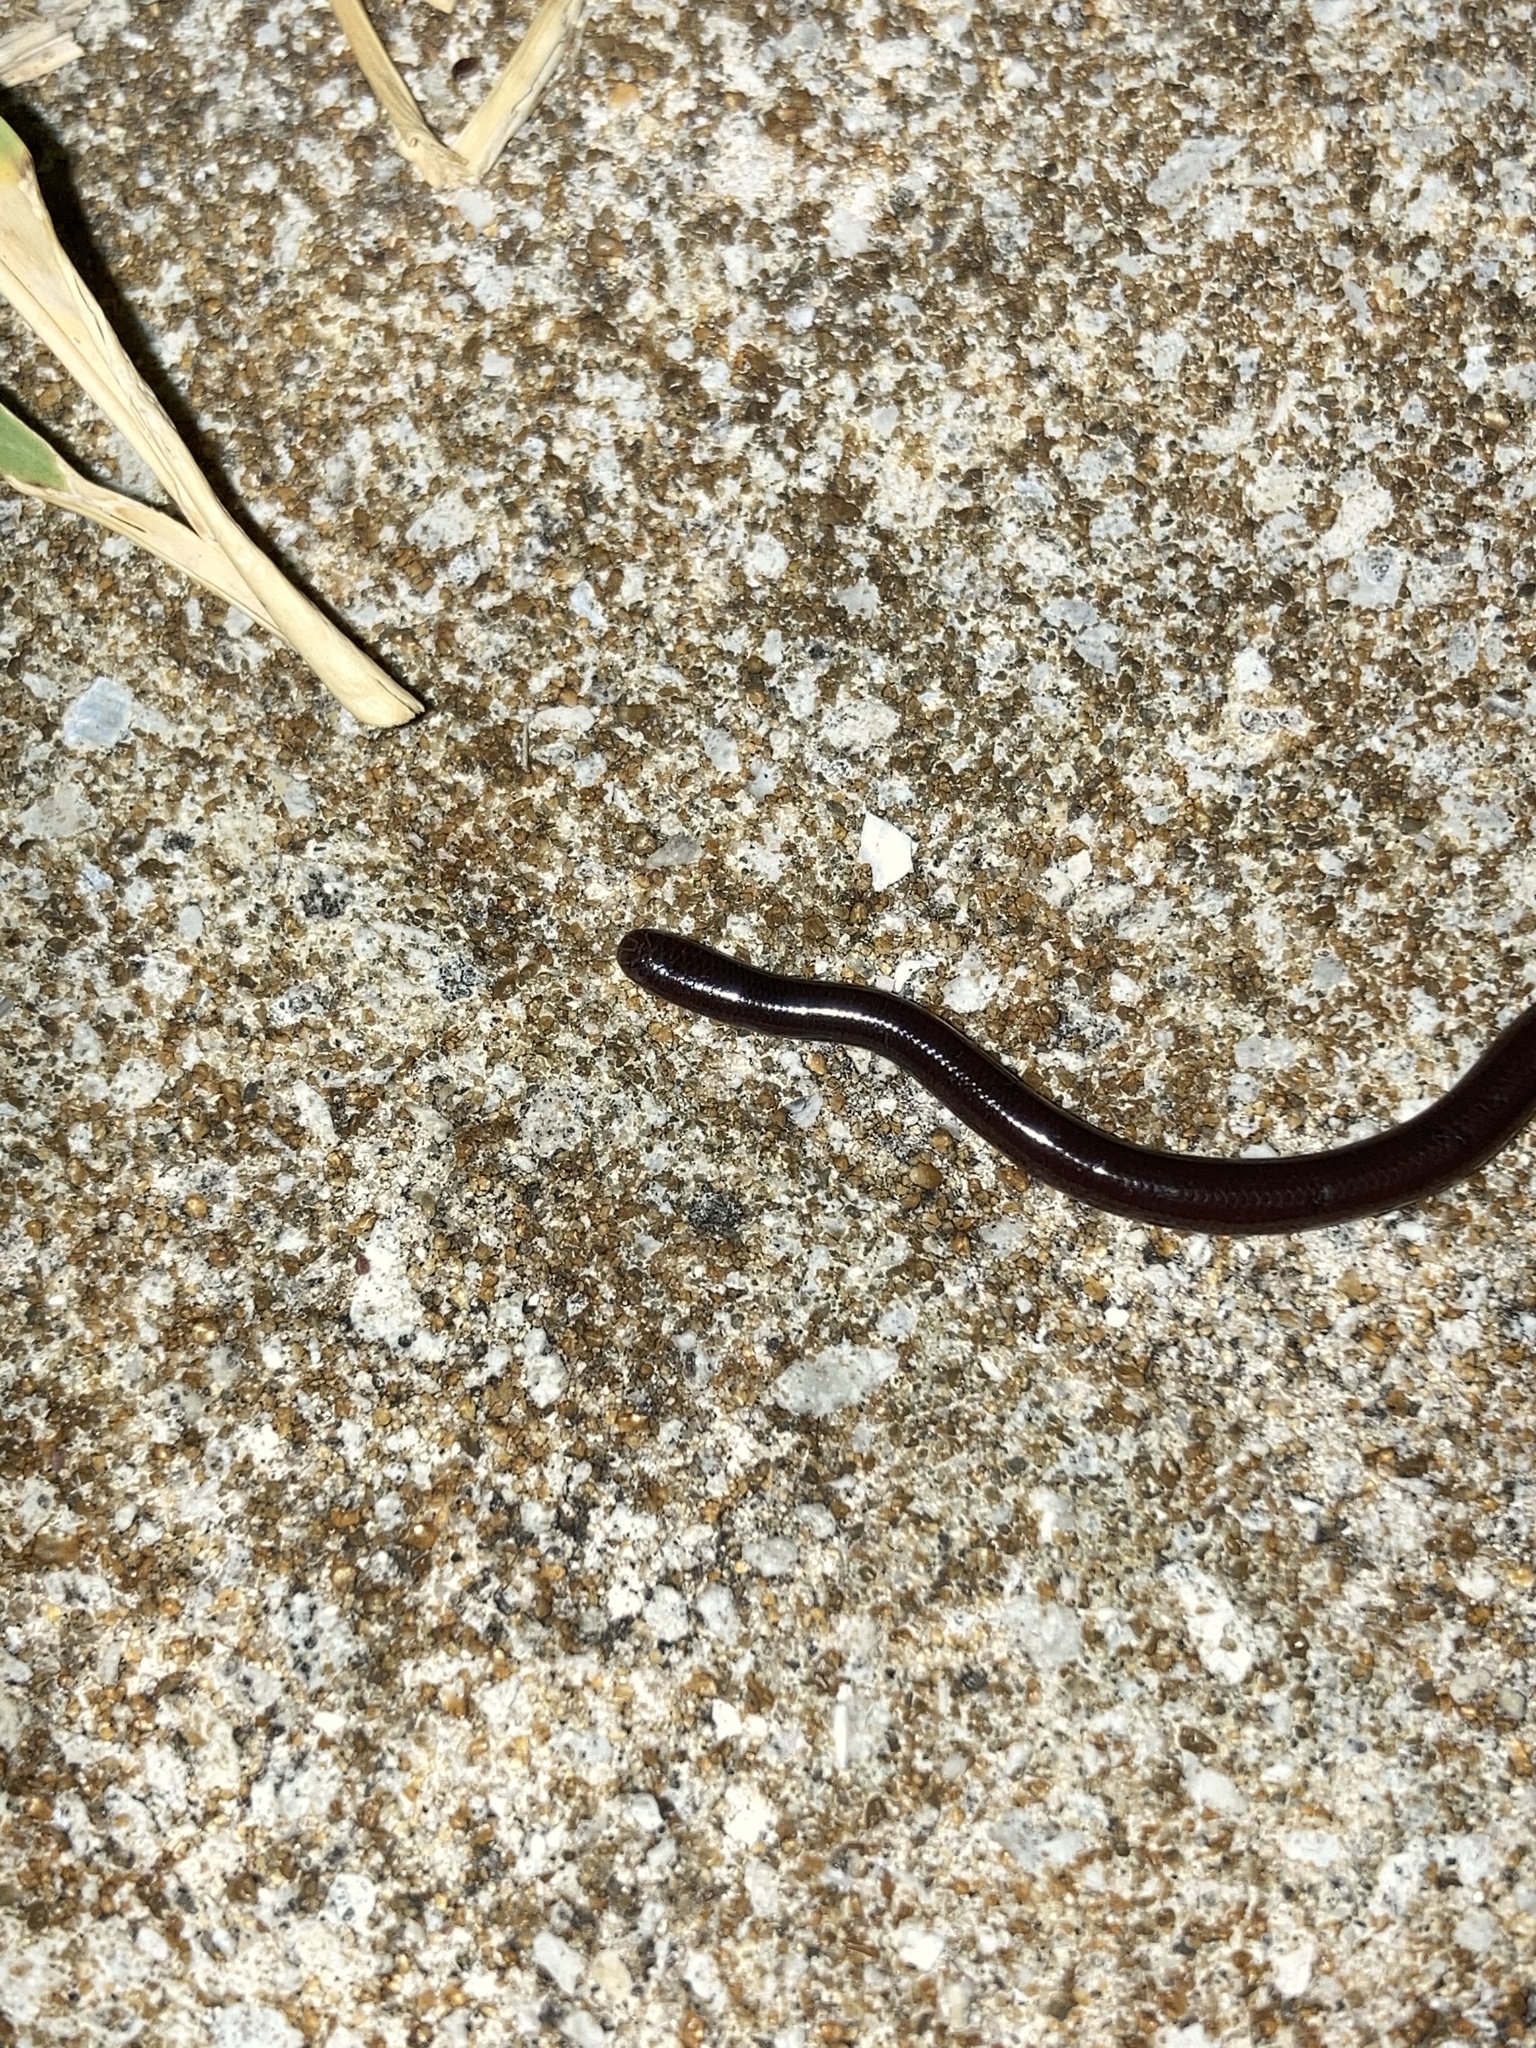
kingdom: Animalia
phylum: Chordata
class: Squamata
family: Typhlopidae
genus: Indotyphlops
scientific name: Indotyphlops braminus
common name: Brahminy blindsnake
